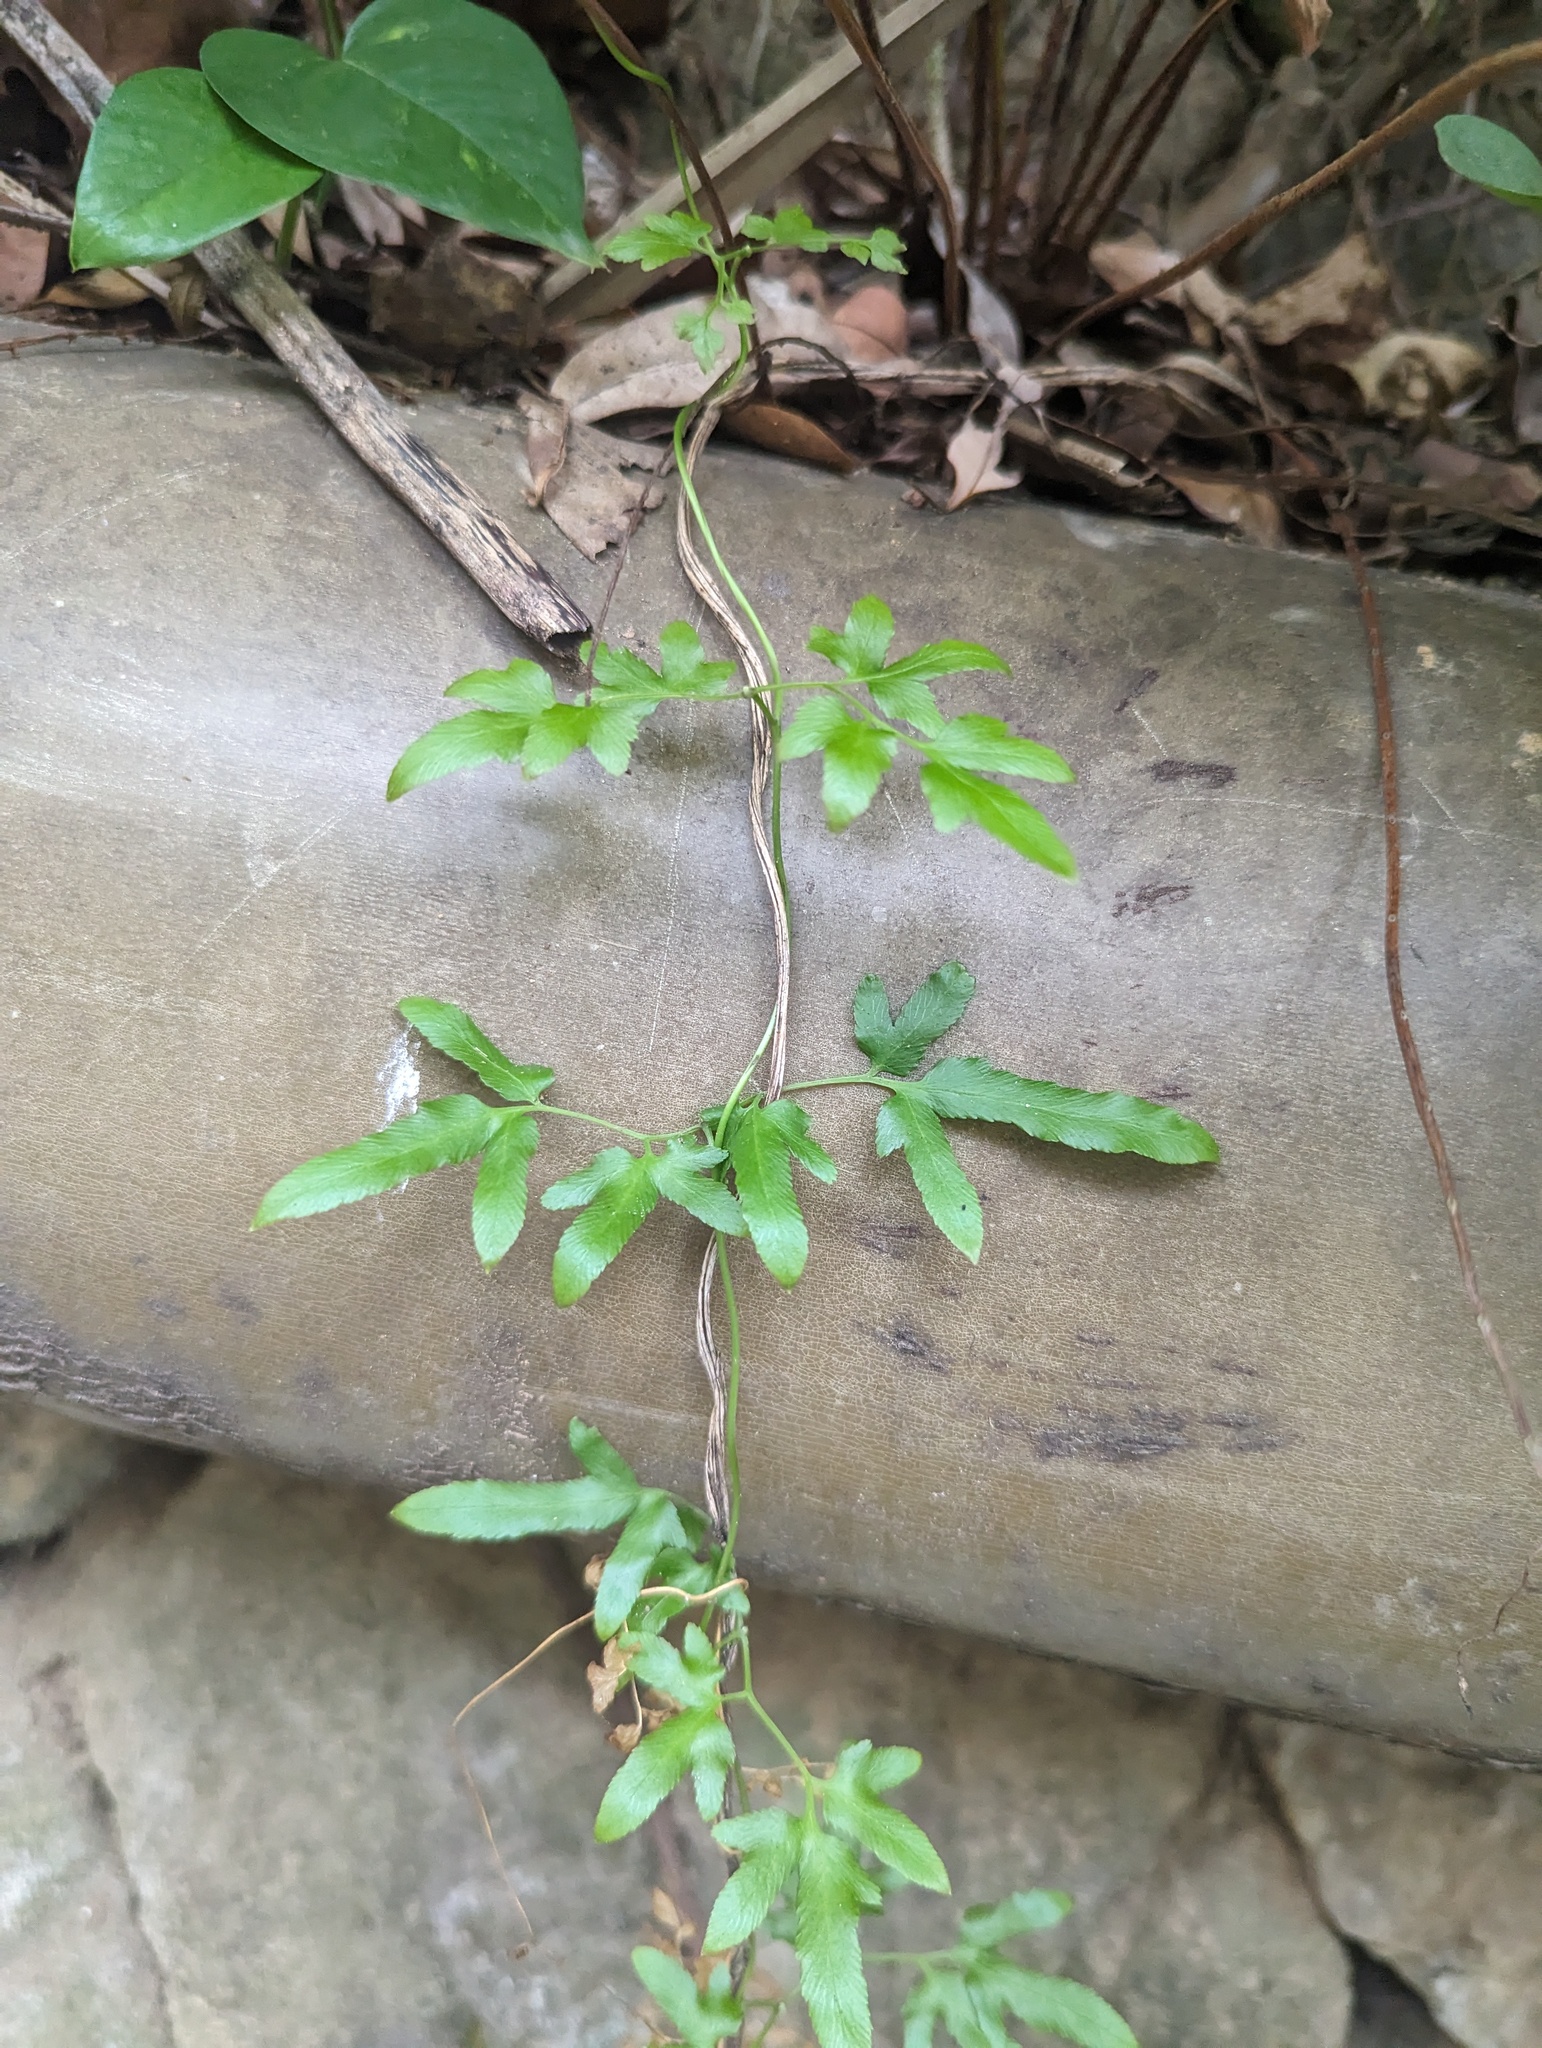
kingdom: Plantae
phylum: Tracheophyta
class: Polypodiopsida
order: Schizaeales
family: Lygodiaceae
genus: Lygodium
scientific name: Lygodium japonicum
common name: Japanese climbing fern
